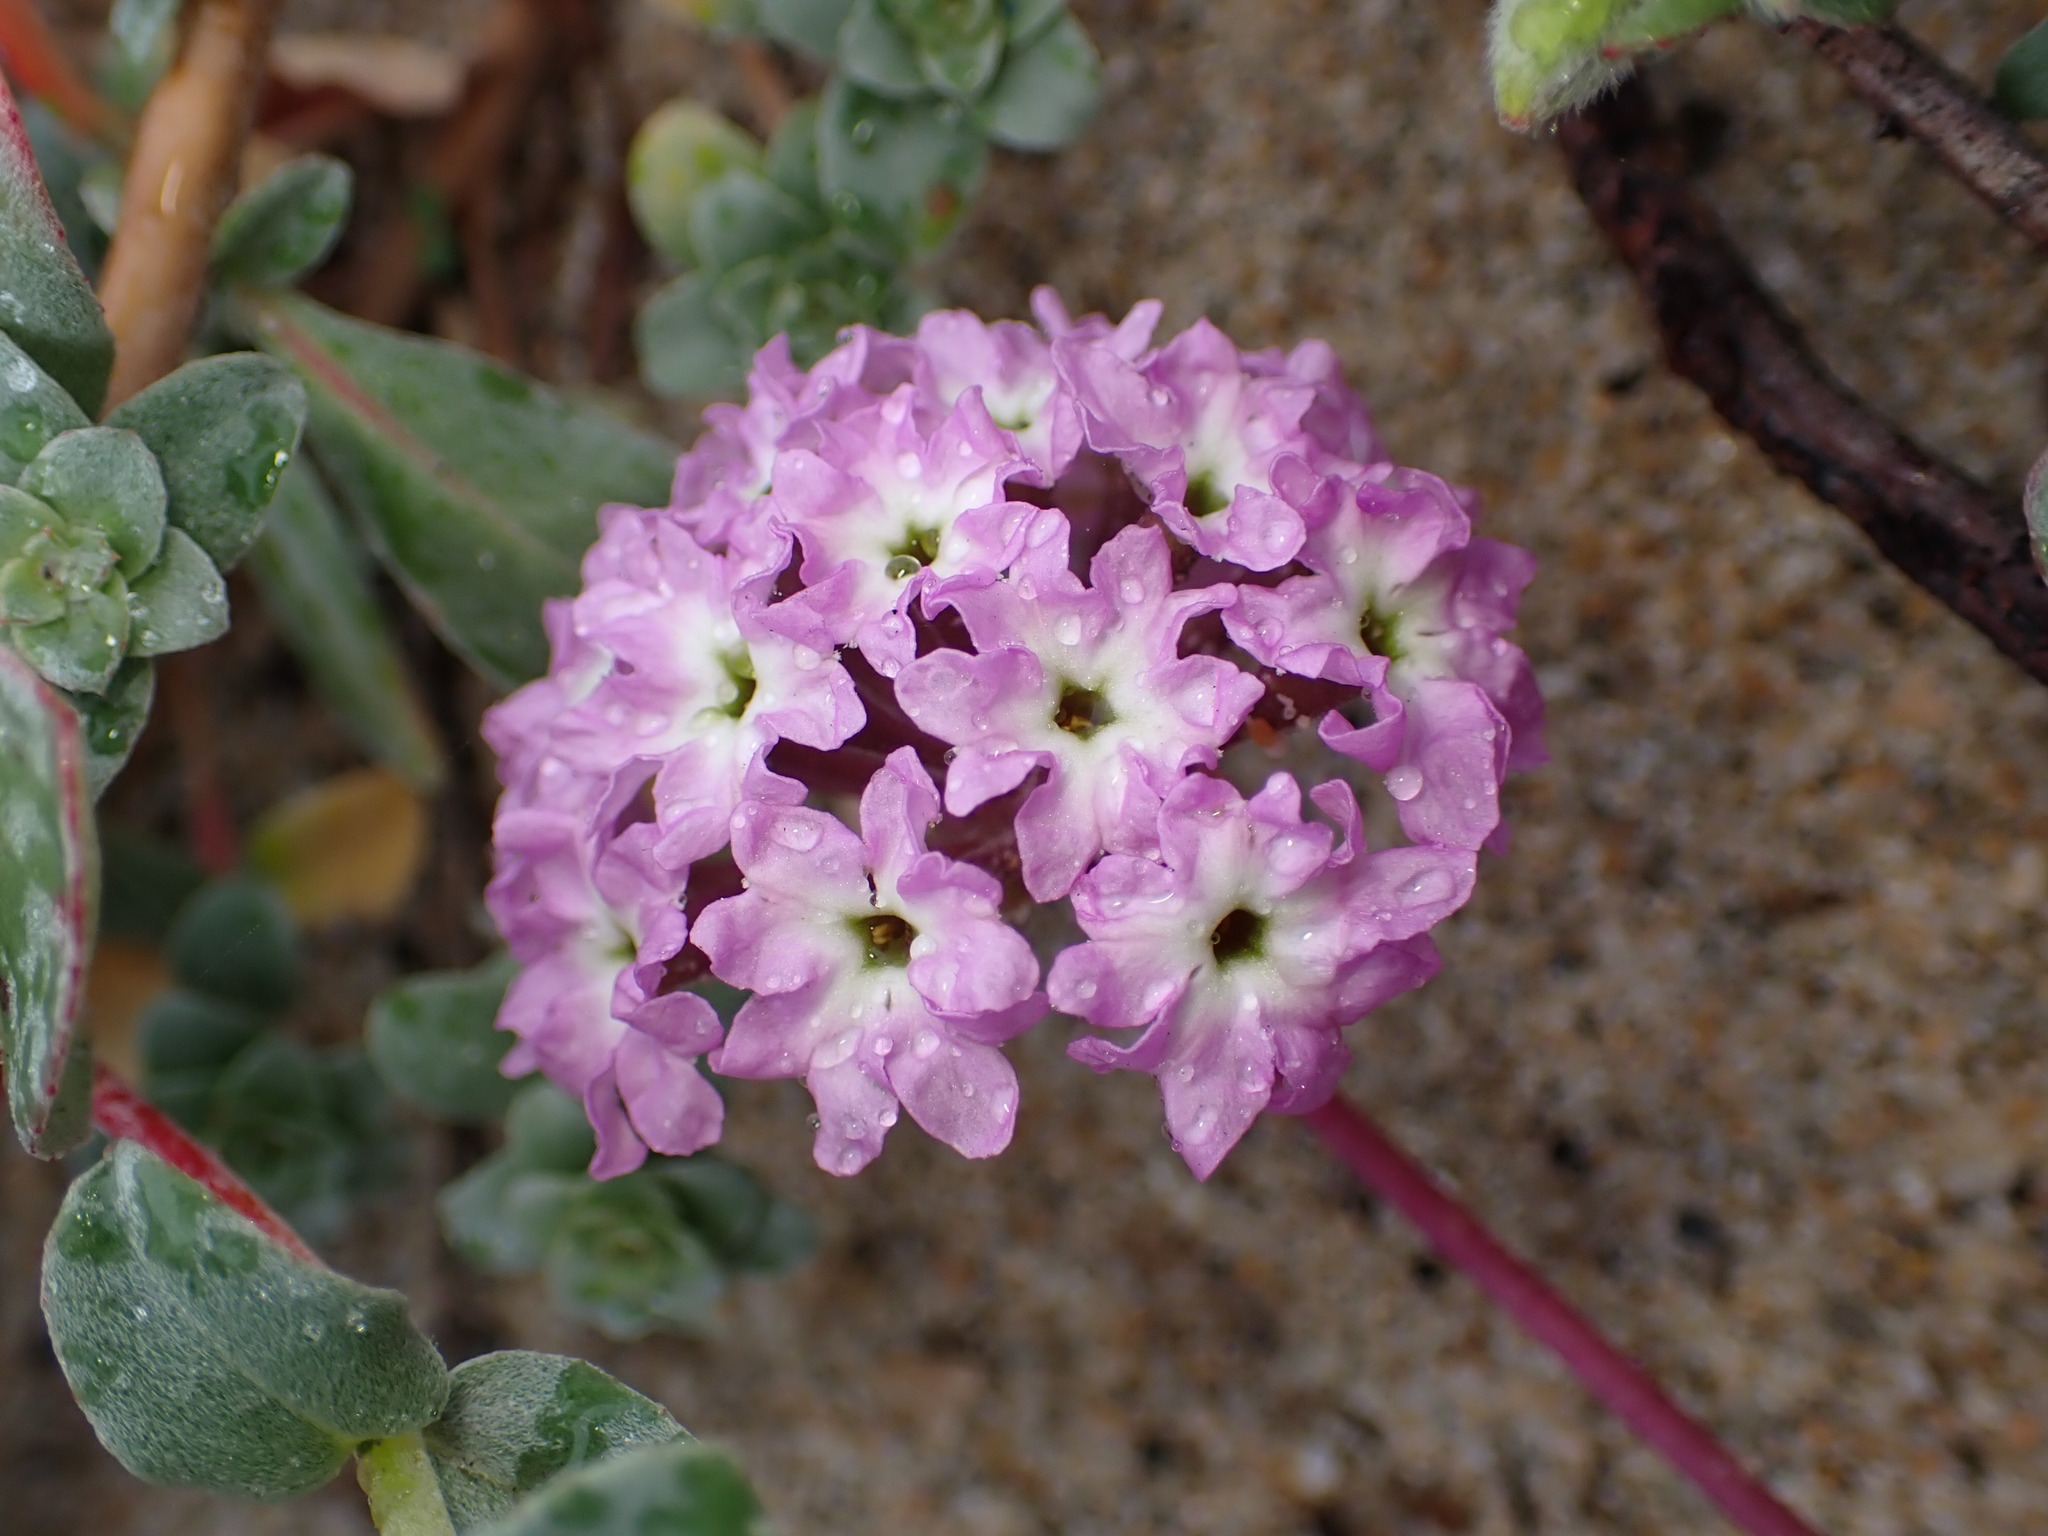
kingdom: Plantae
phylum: Tracheophyta
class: Magnoliopsida
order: Caryophyllales
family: Nyctaginaceae
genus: Abronia
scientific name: Abronia umbellata
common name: Sand-verbena
